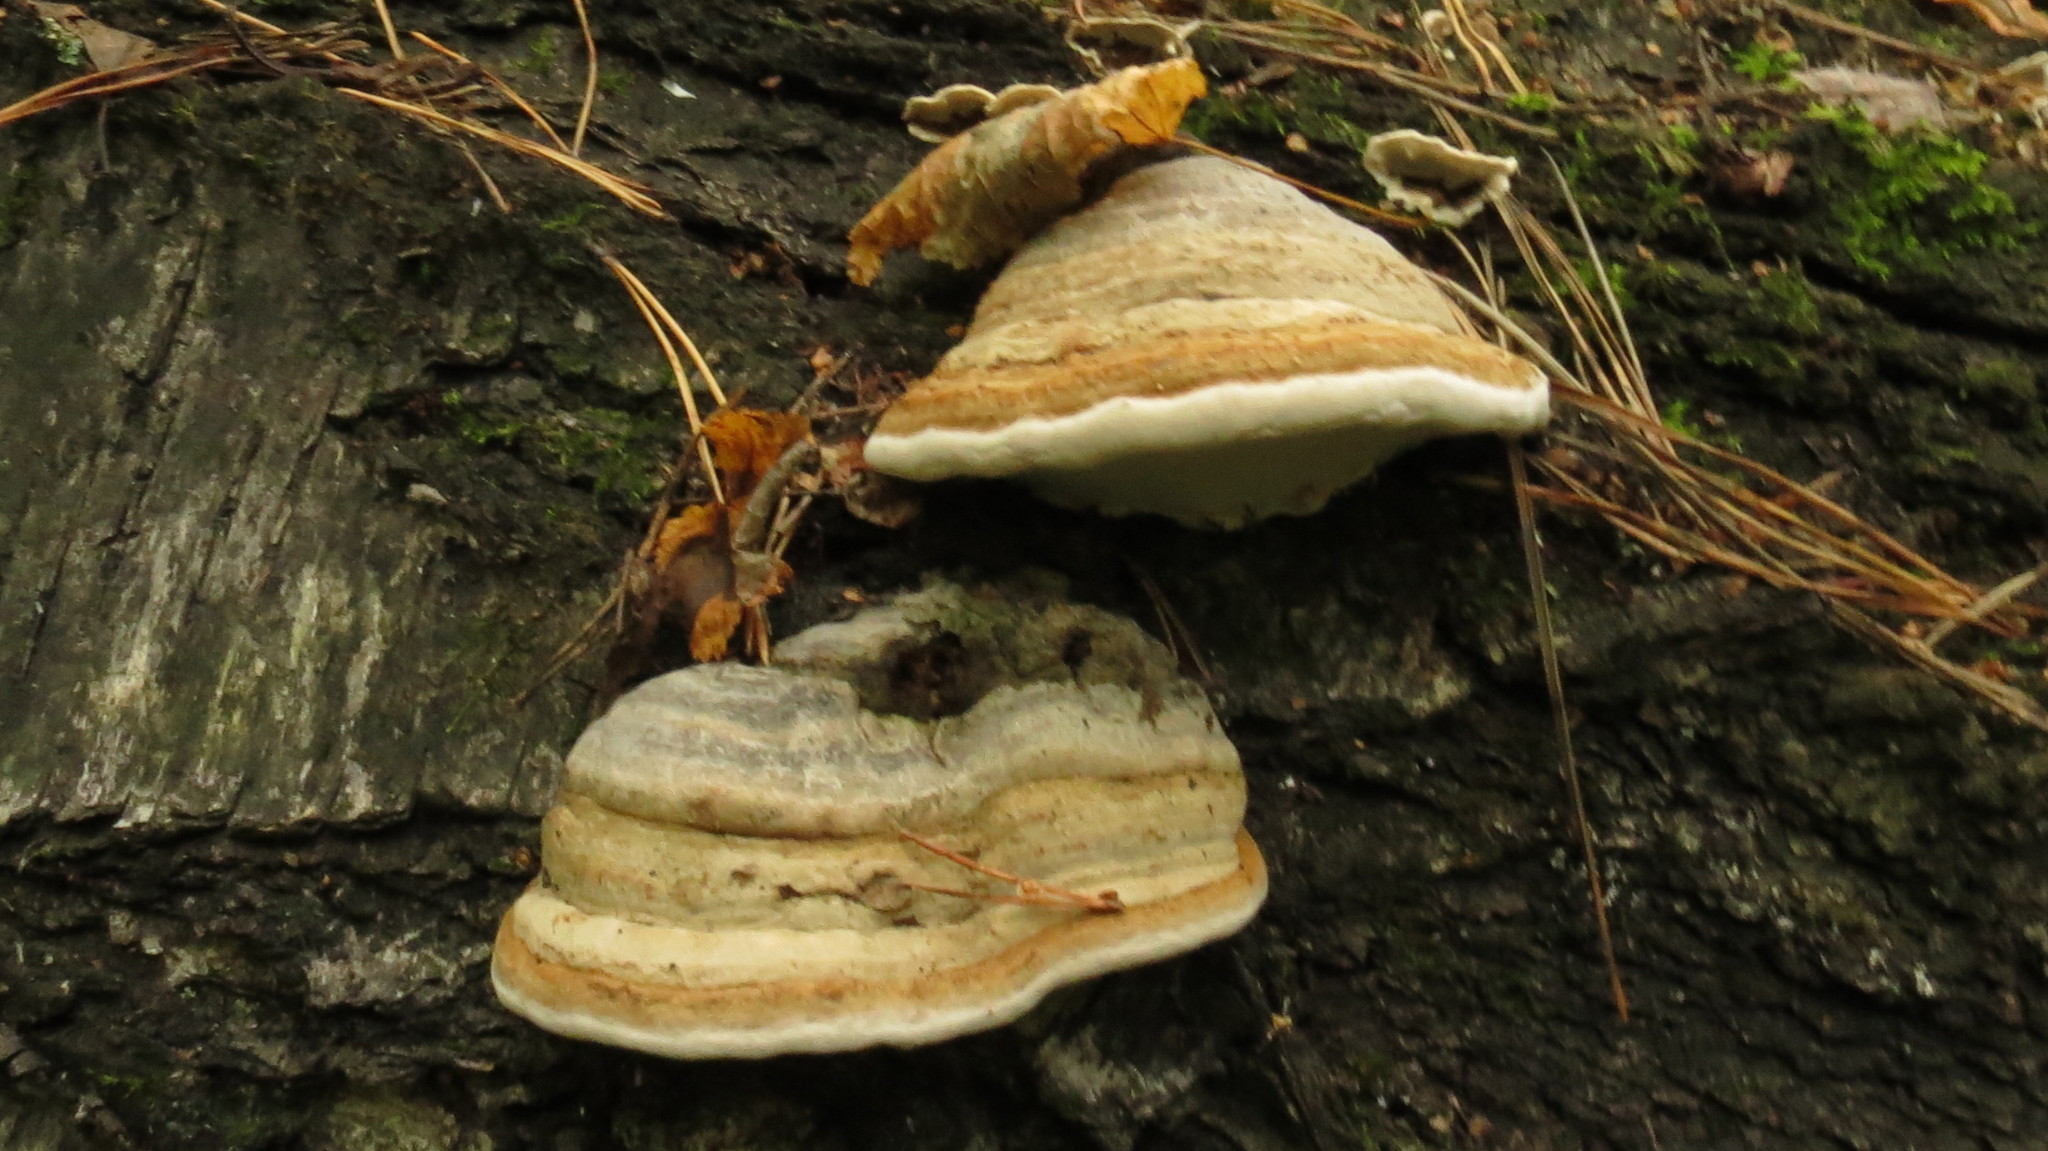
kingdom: Fungi
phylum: Basidiomycota
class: Agaricomycetes
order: Polyporales
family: Polyporaceae
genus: Fomes
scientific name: Fomes fomentarius
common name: Hoof fungus
